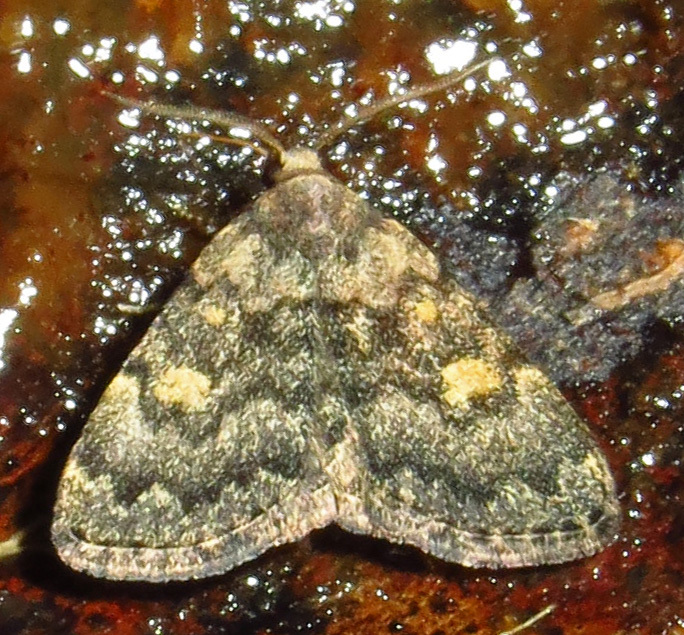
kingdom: Animalia
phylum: Arthropoda
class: Insecta
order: Lepidoptera
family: Erebidae
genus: Idia
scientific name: Idia aemula
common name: Common idia moth
